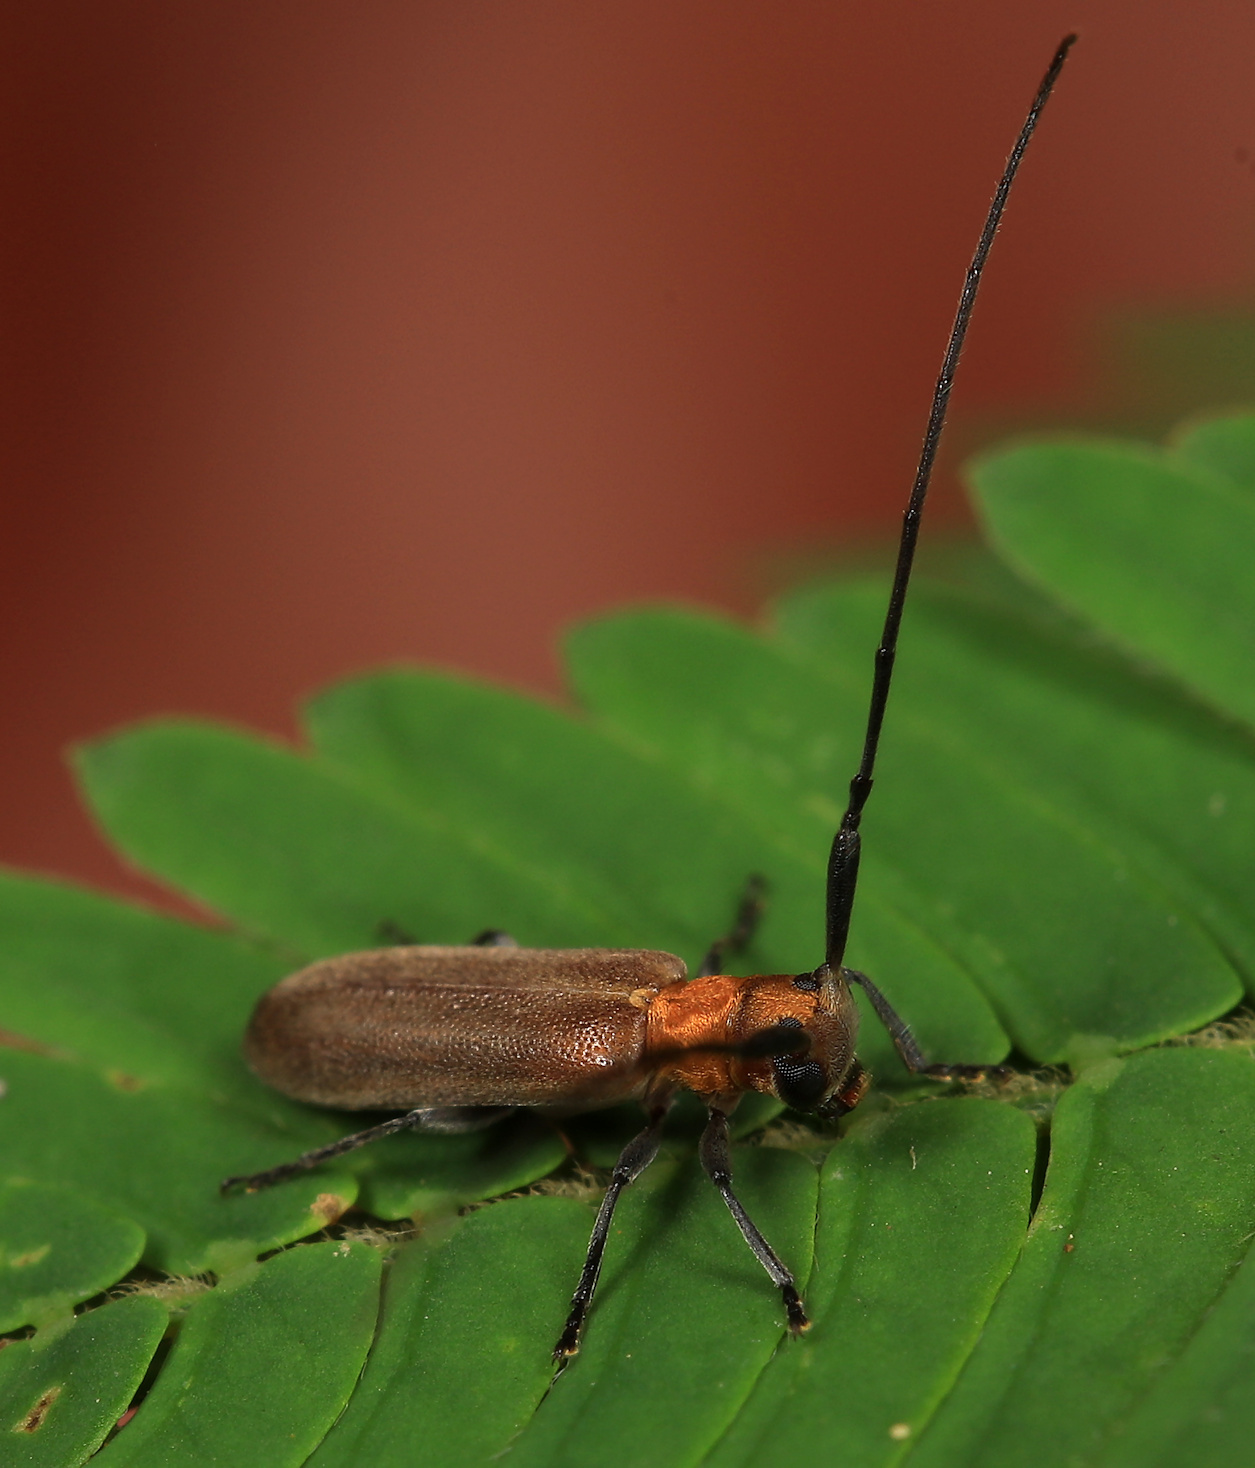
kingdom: Animalia
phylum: Arthropoda
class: Insecta
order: Coleoptera
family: Cerambycidae
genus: Eunidia
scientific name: Eunidia fulvida
